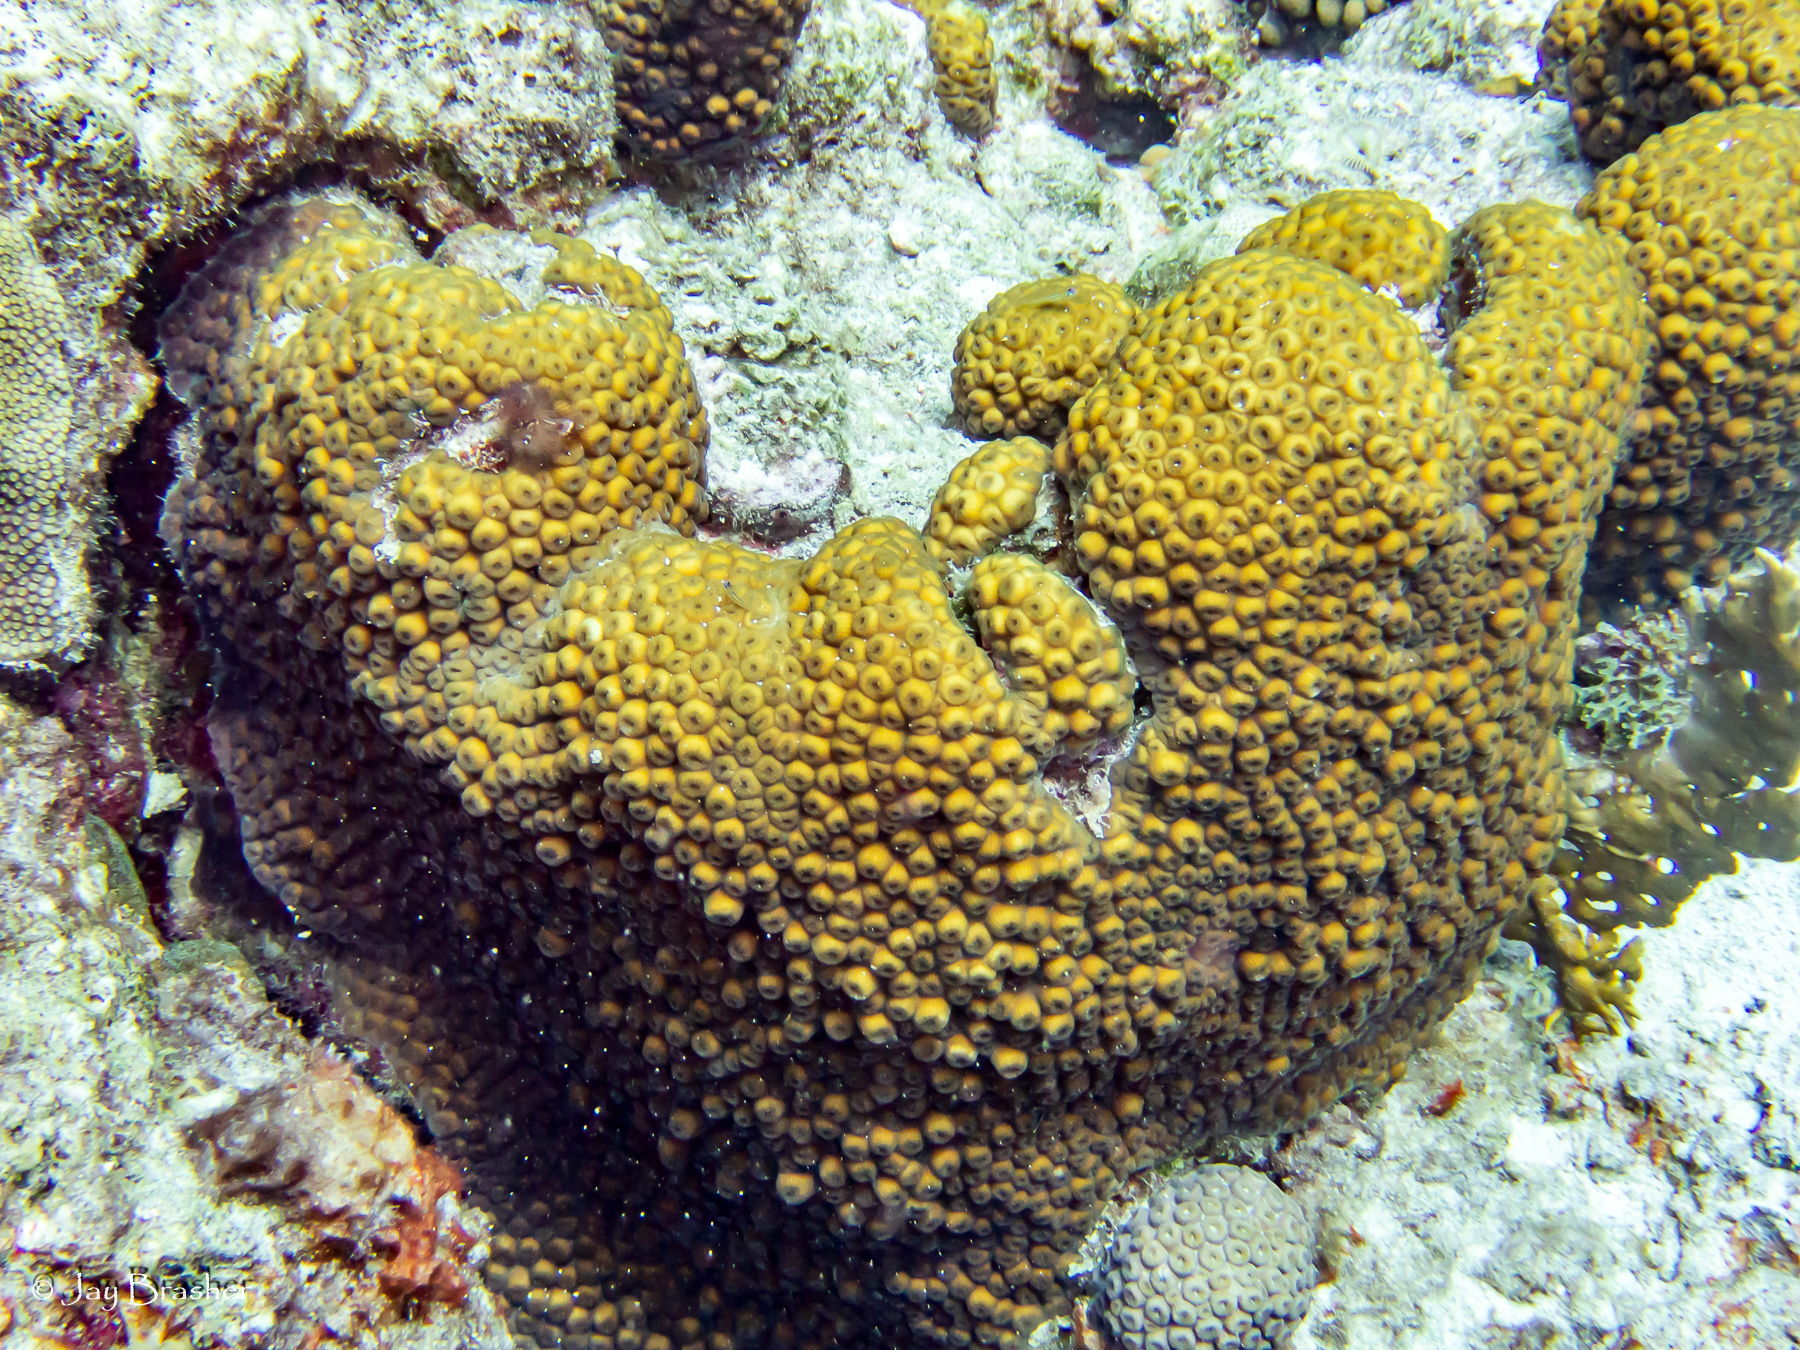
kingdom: Animalia
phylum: Cnidaria
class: Anthozoa
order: Scleractinia
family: Montastraeidae
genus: Montastraea
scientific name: Montastraea cavernosa
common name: Great star coral
